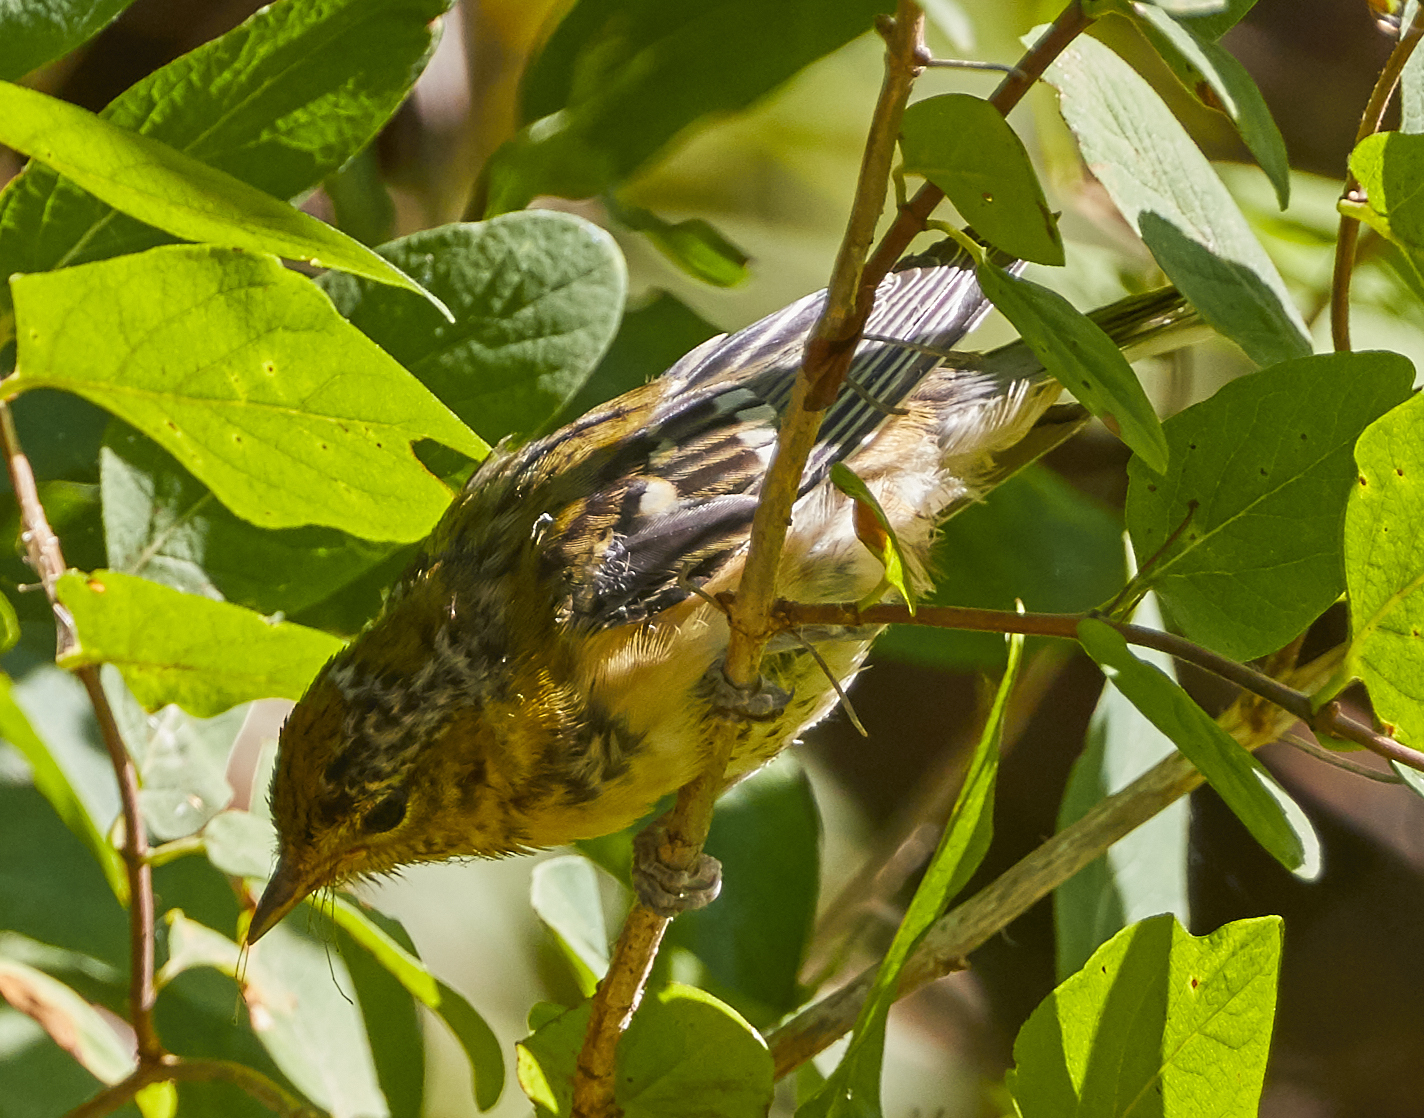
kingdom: Animalia
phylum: Chordata
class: Aves
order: Passeriformes
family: Parulidae
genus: Setophaga
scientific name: Setophaga coronata
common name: Myrtle warbler
